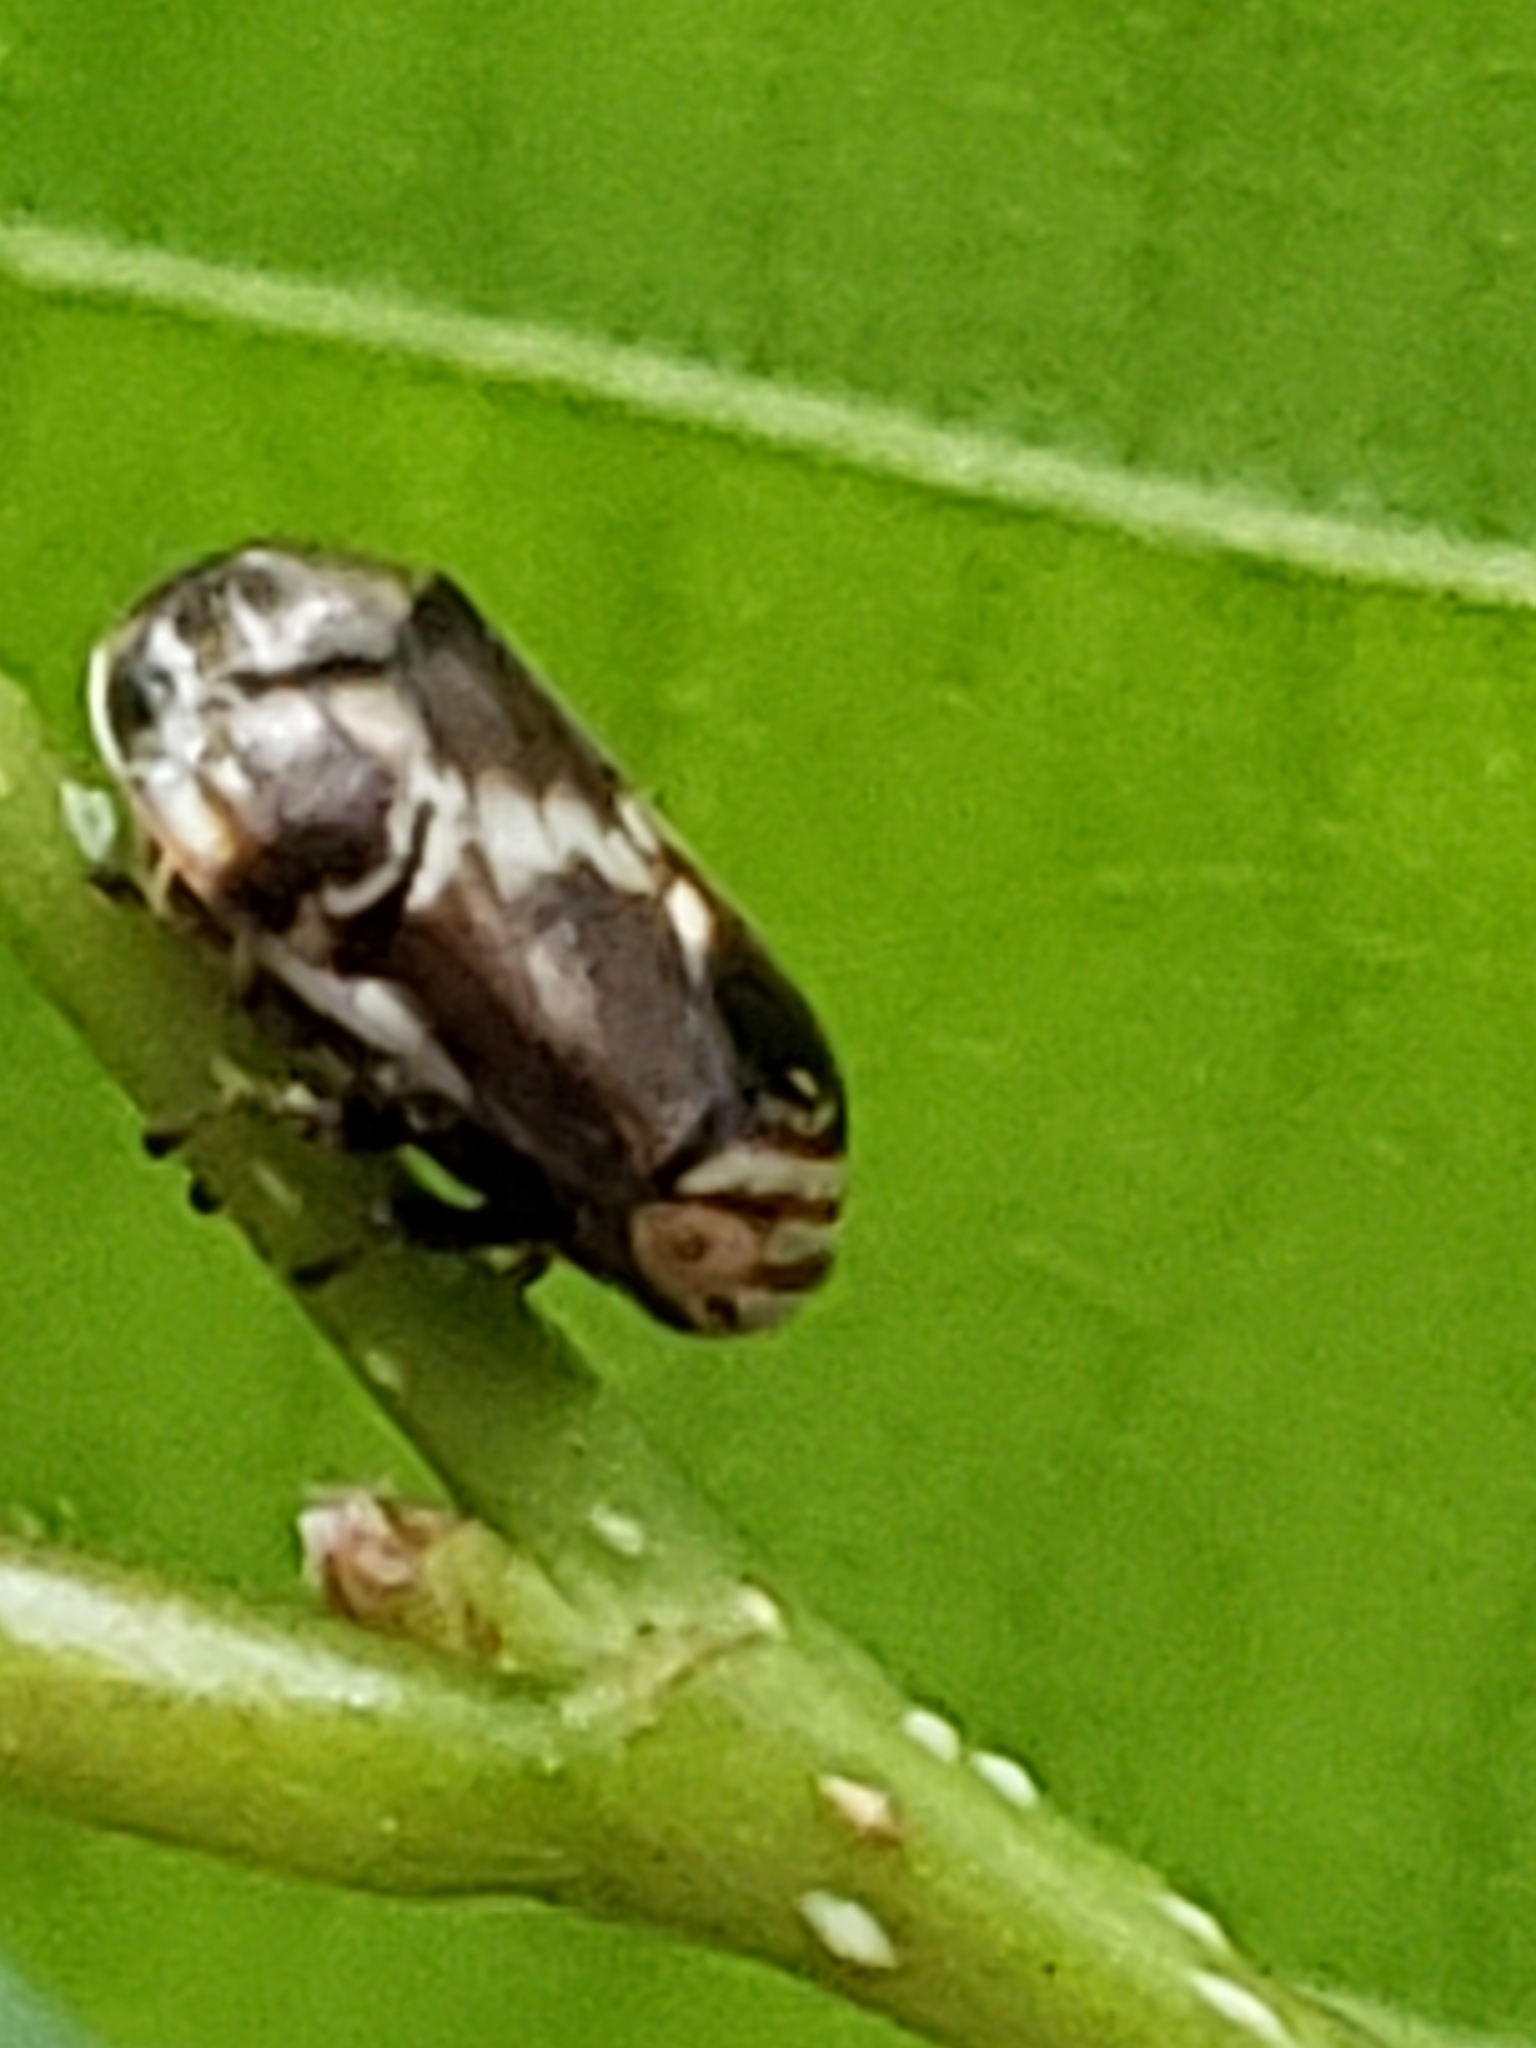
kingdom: Animalia
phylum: Arthropoda
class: Insecta
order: Hemiptera
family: Clastopteridae
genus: Clastoptera
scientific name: Clastoptera obtusa
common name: Alder spittlebug
